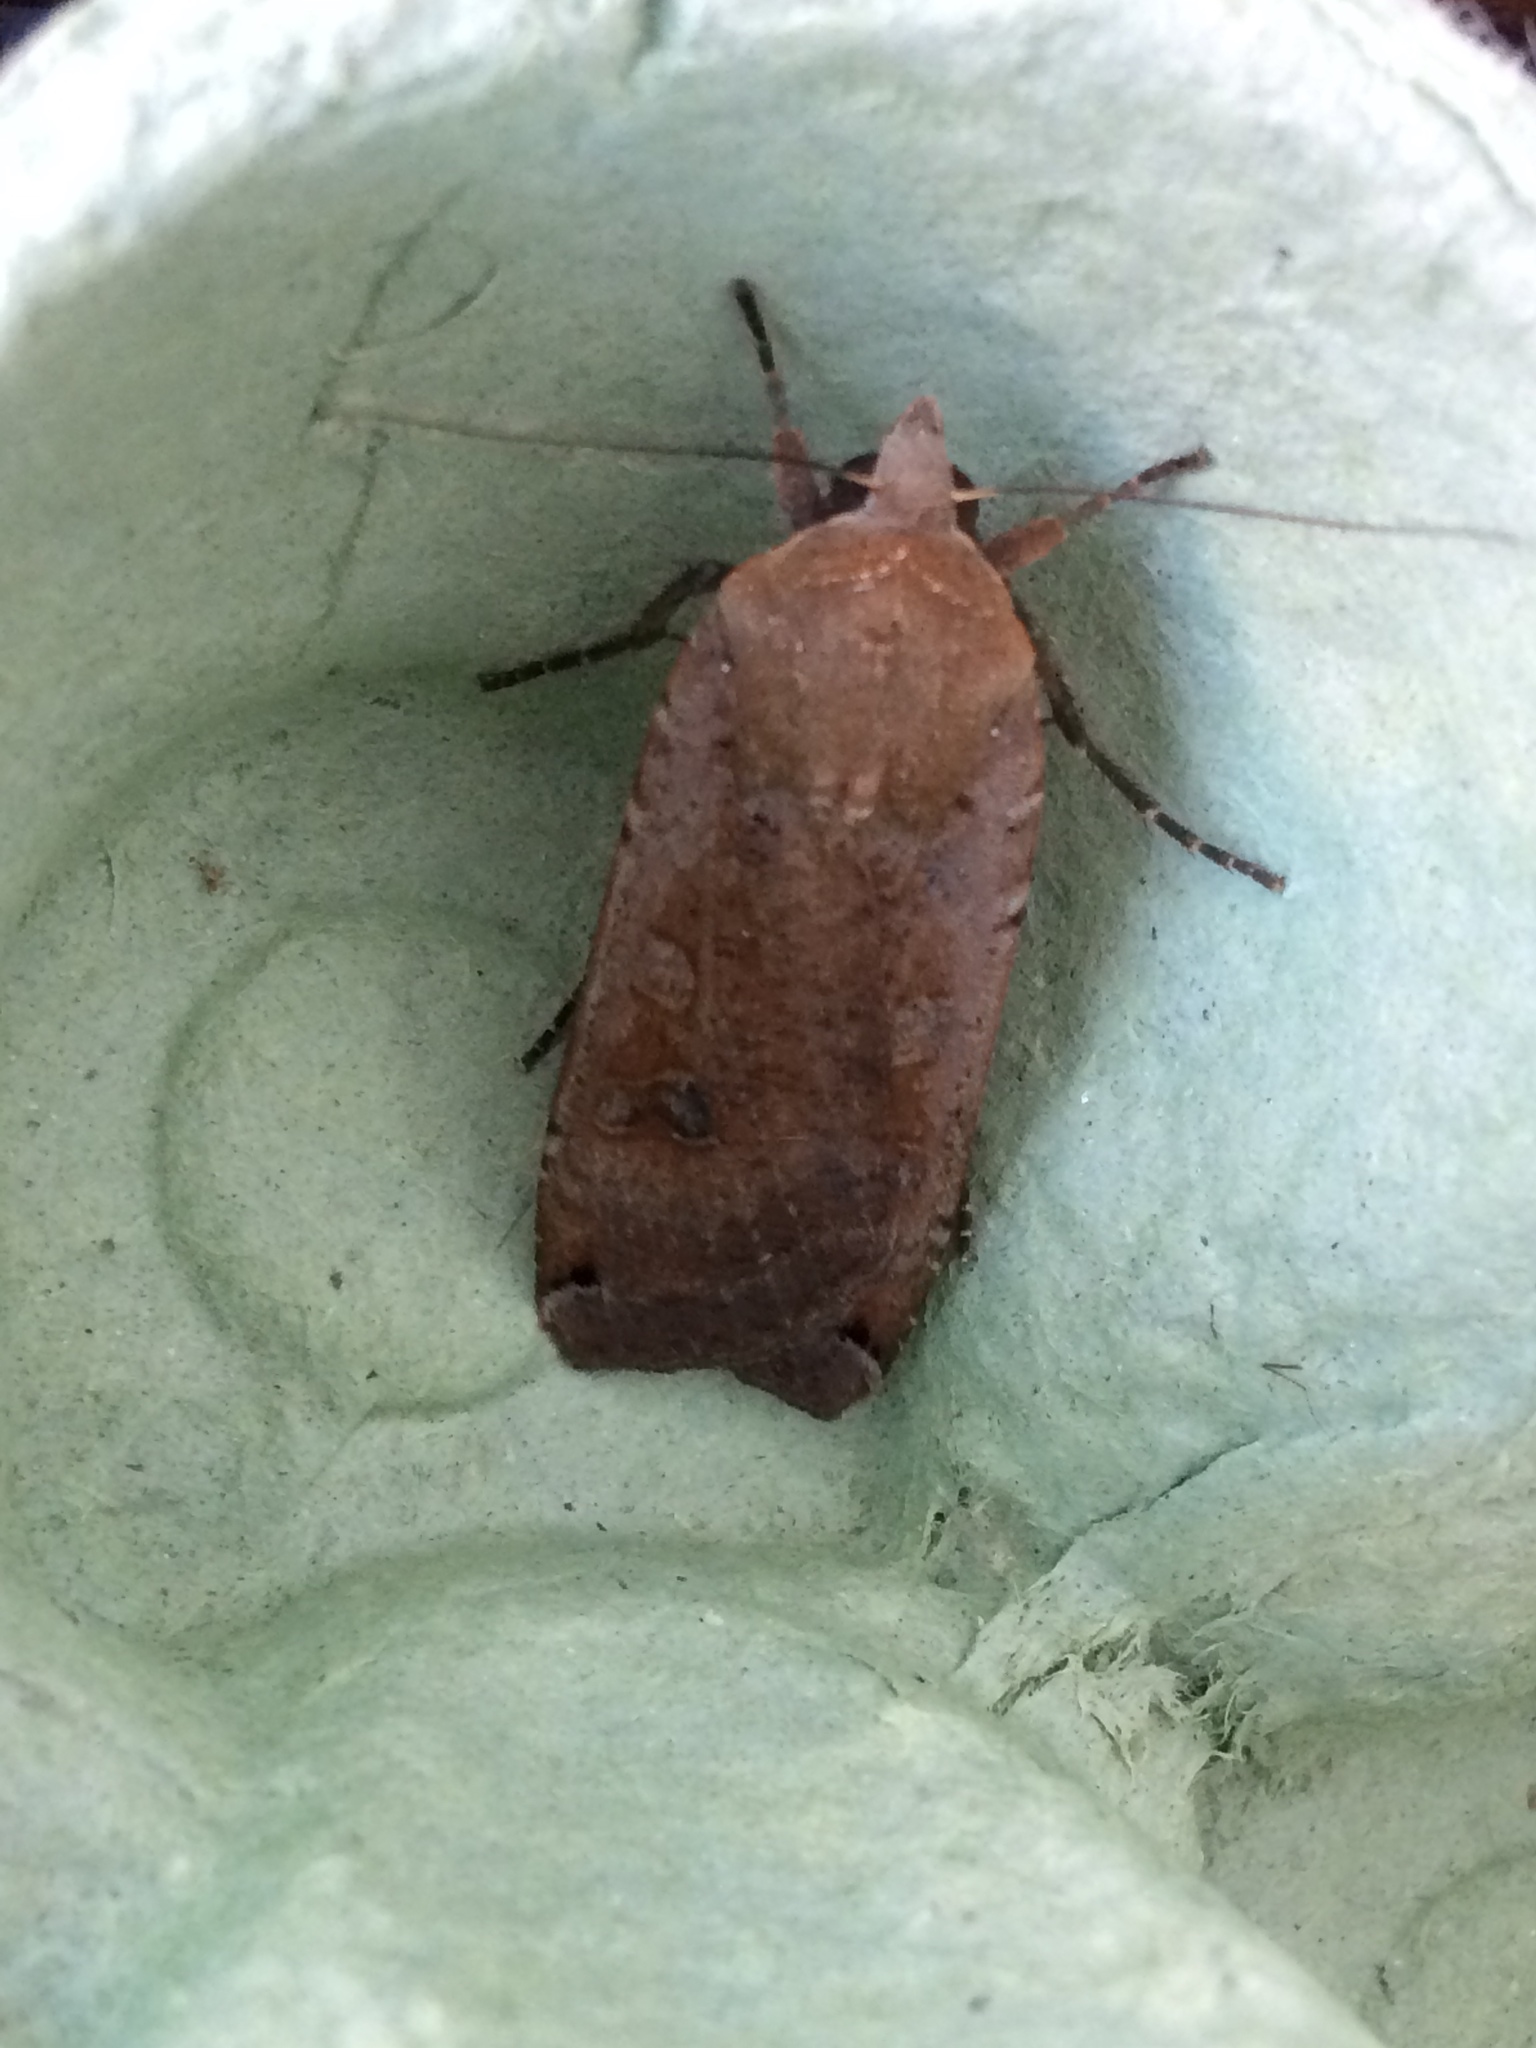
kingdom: Animalia
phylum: Arthropoda
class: Insecta
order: Lepidoptera
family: Noctuidae
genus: Noctua
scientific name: Noctua pronuba
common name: Large yellow underwing
